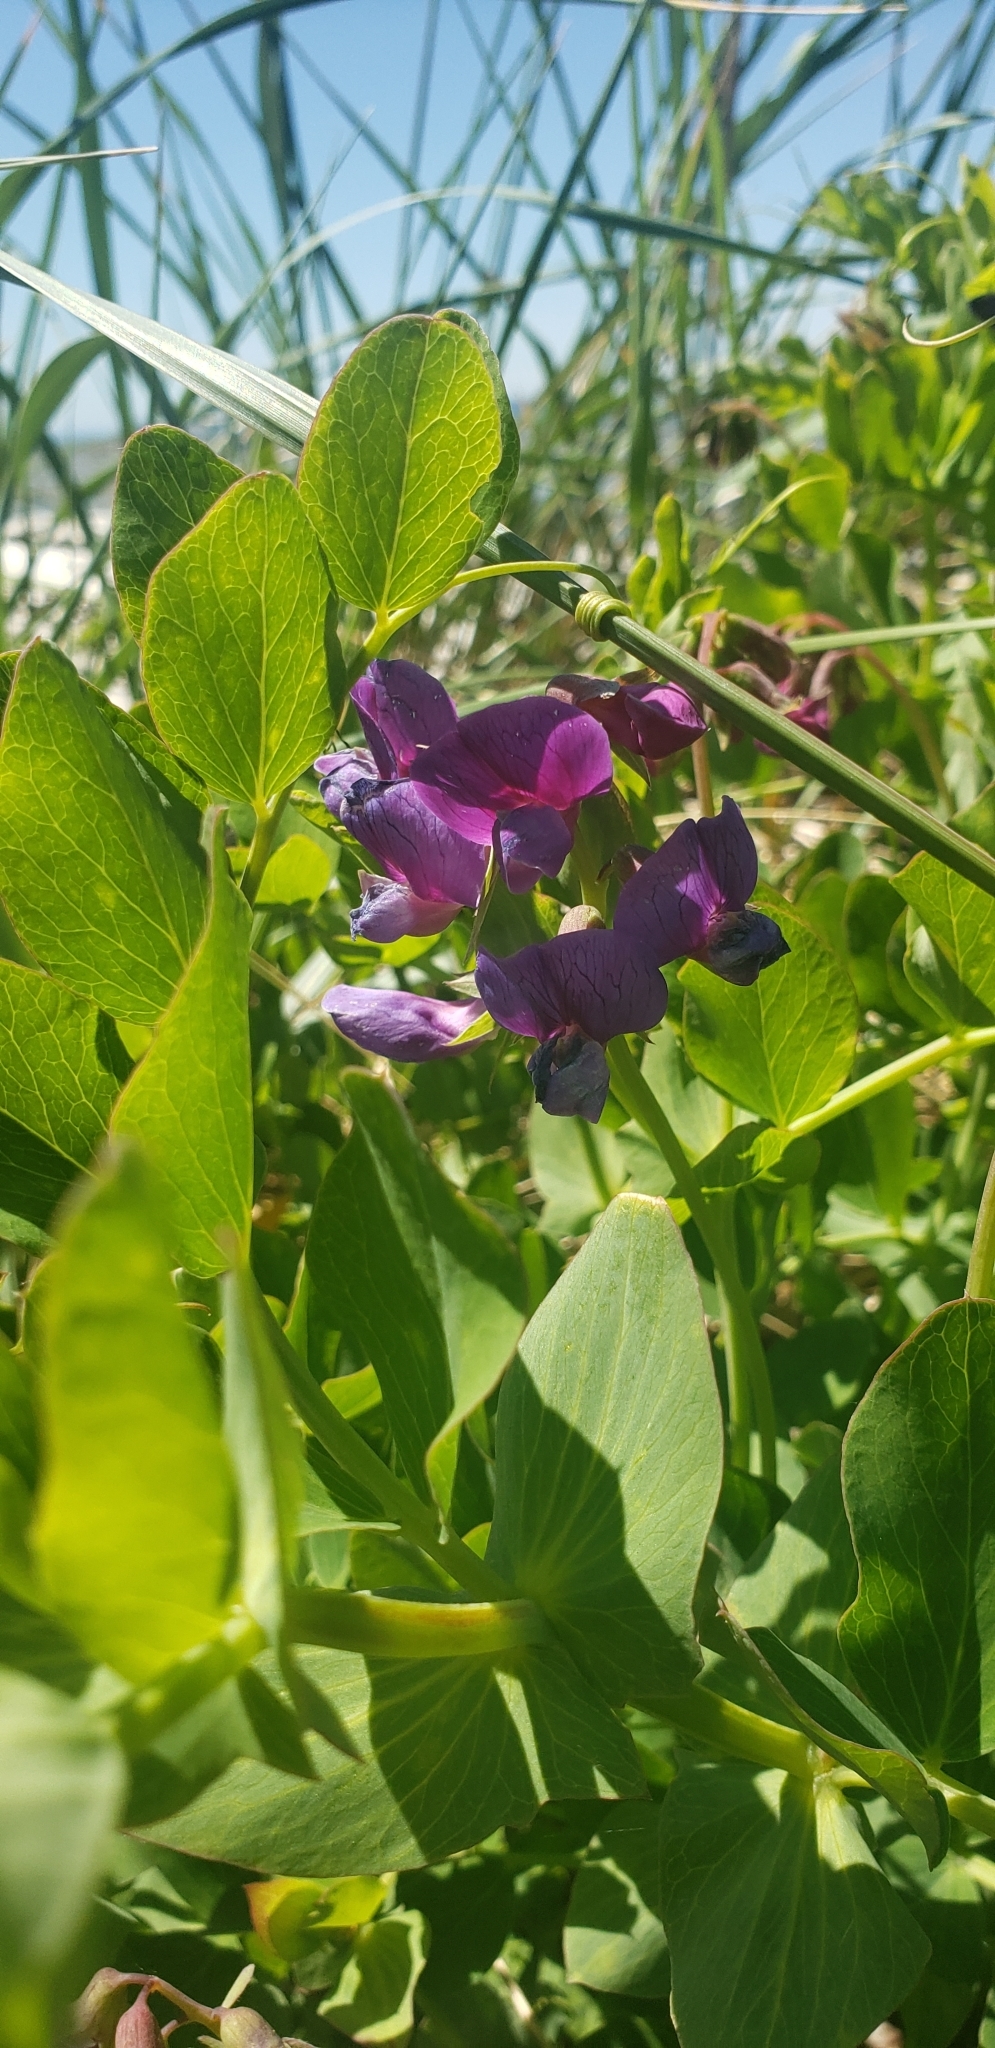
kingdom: Plantae
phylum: Tracheophyta
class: Magnoliopsida
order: Fabales
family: Fabaceae
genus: Lathyrus
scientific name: Lathyrus japonicus
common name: Sea pea
